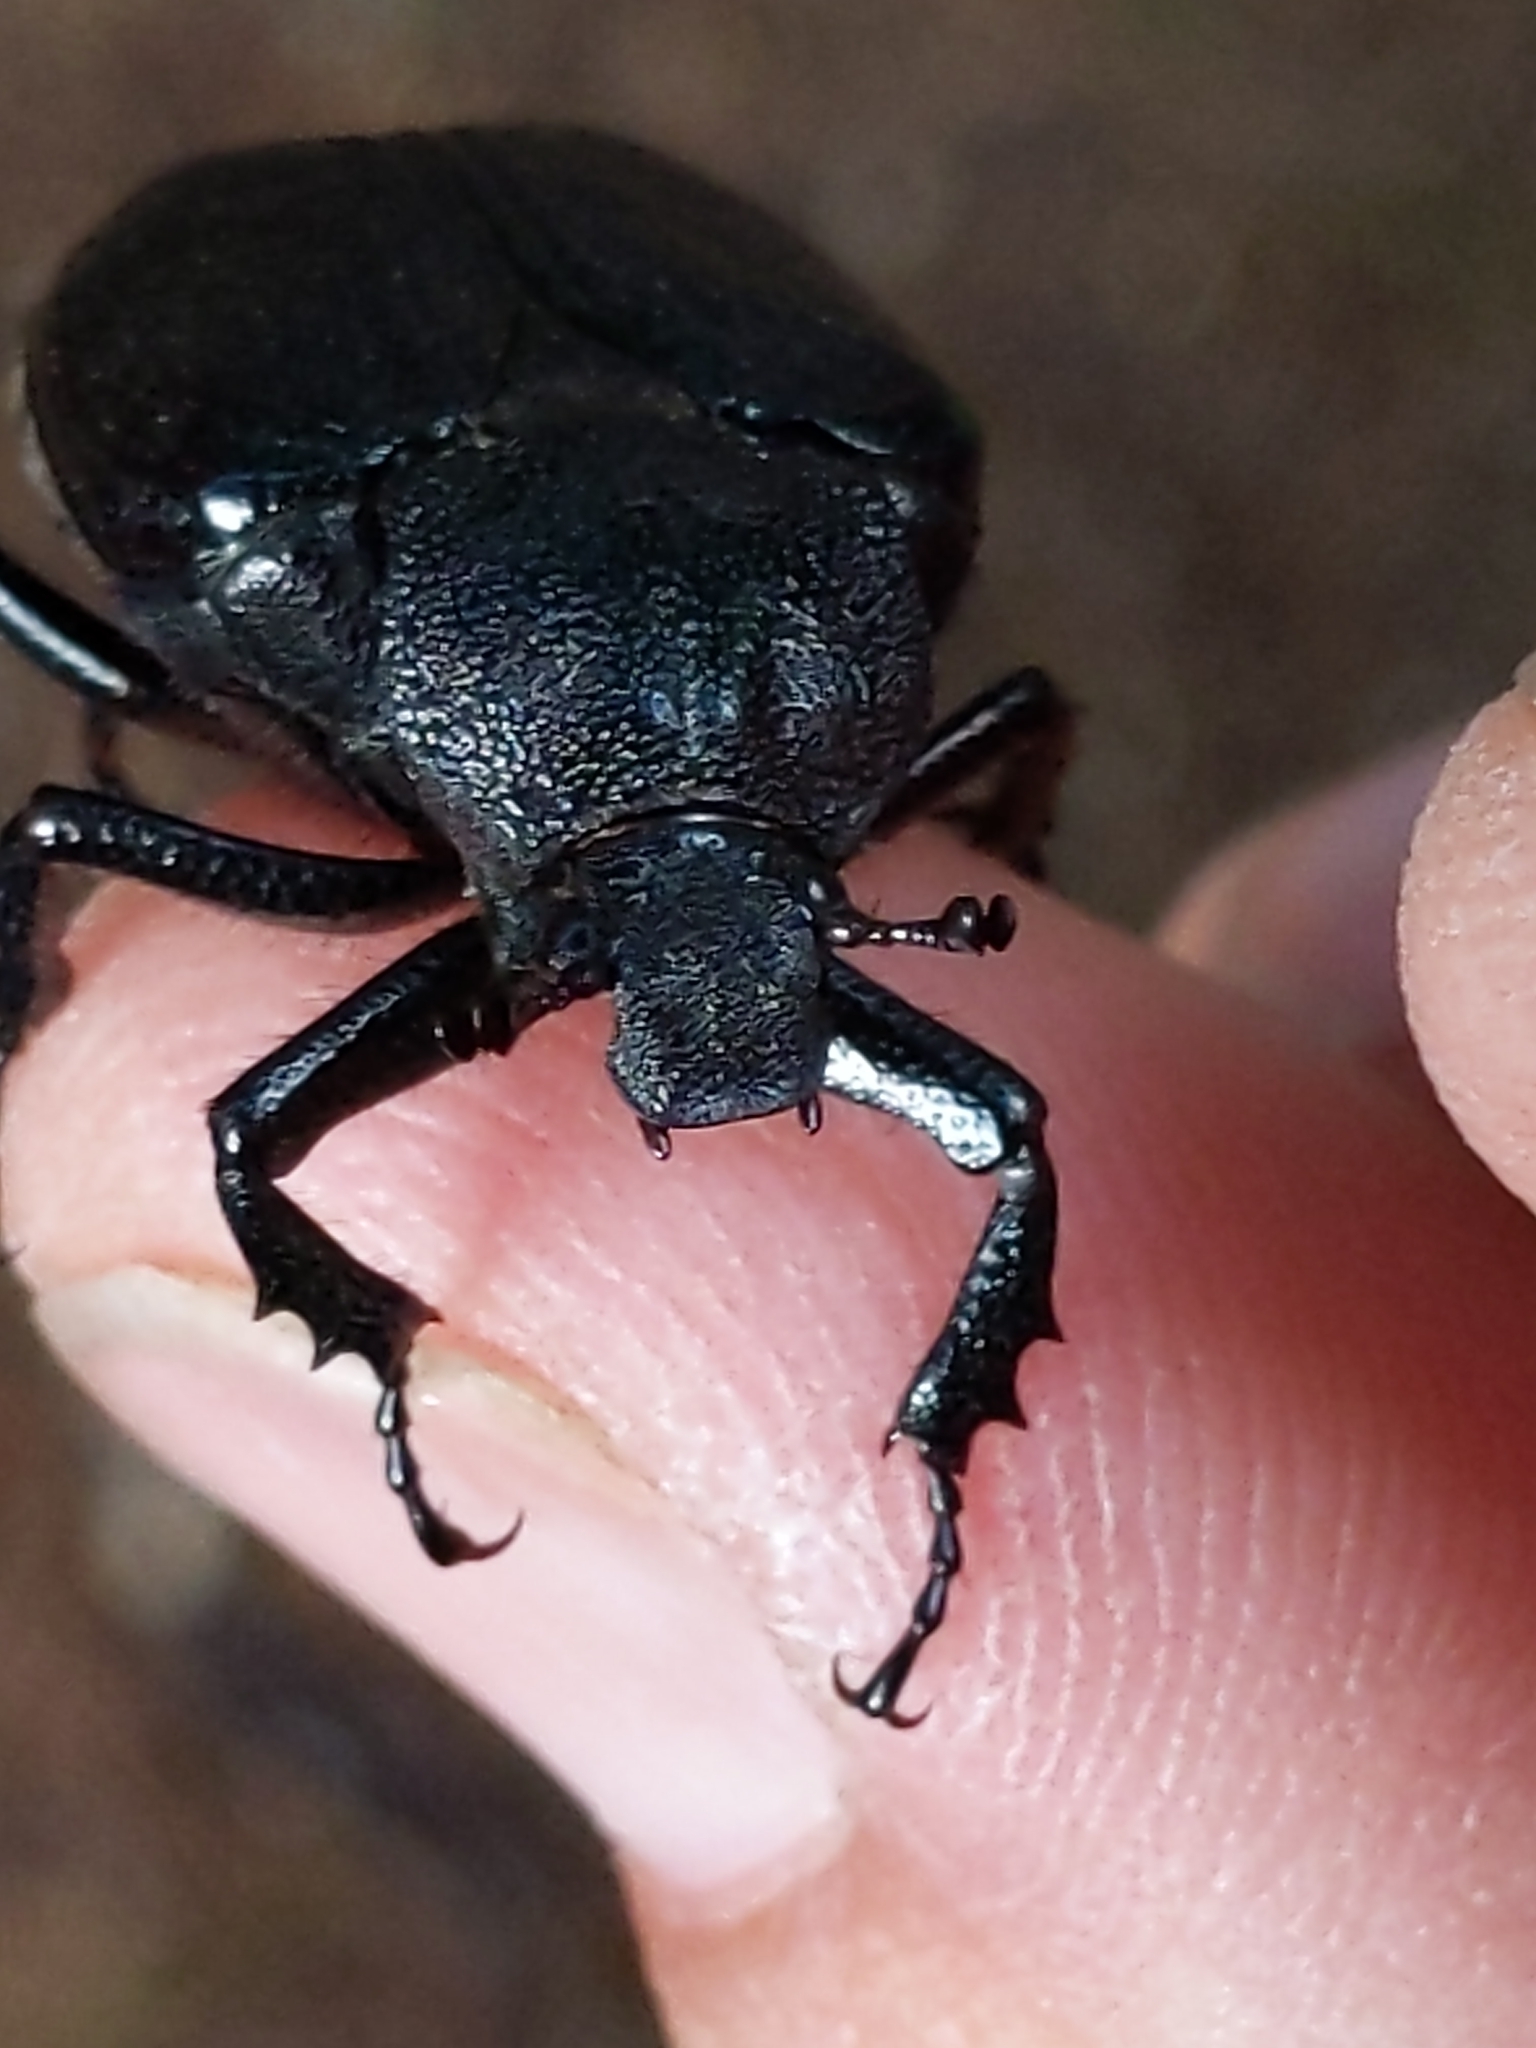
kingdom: Animalia
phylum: Arthropoda
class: Insecta
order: Coleoptera
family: Scarabaeidae
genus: Osmoderma
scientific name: Osmoderma scabra
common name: Rough hermit beetle
